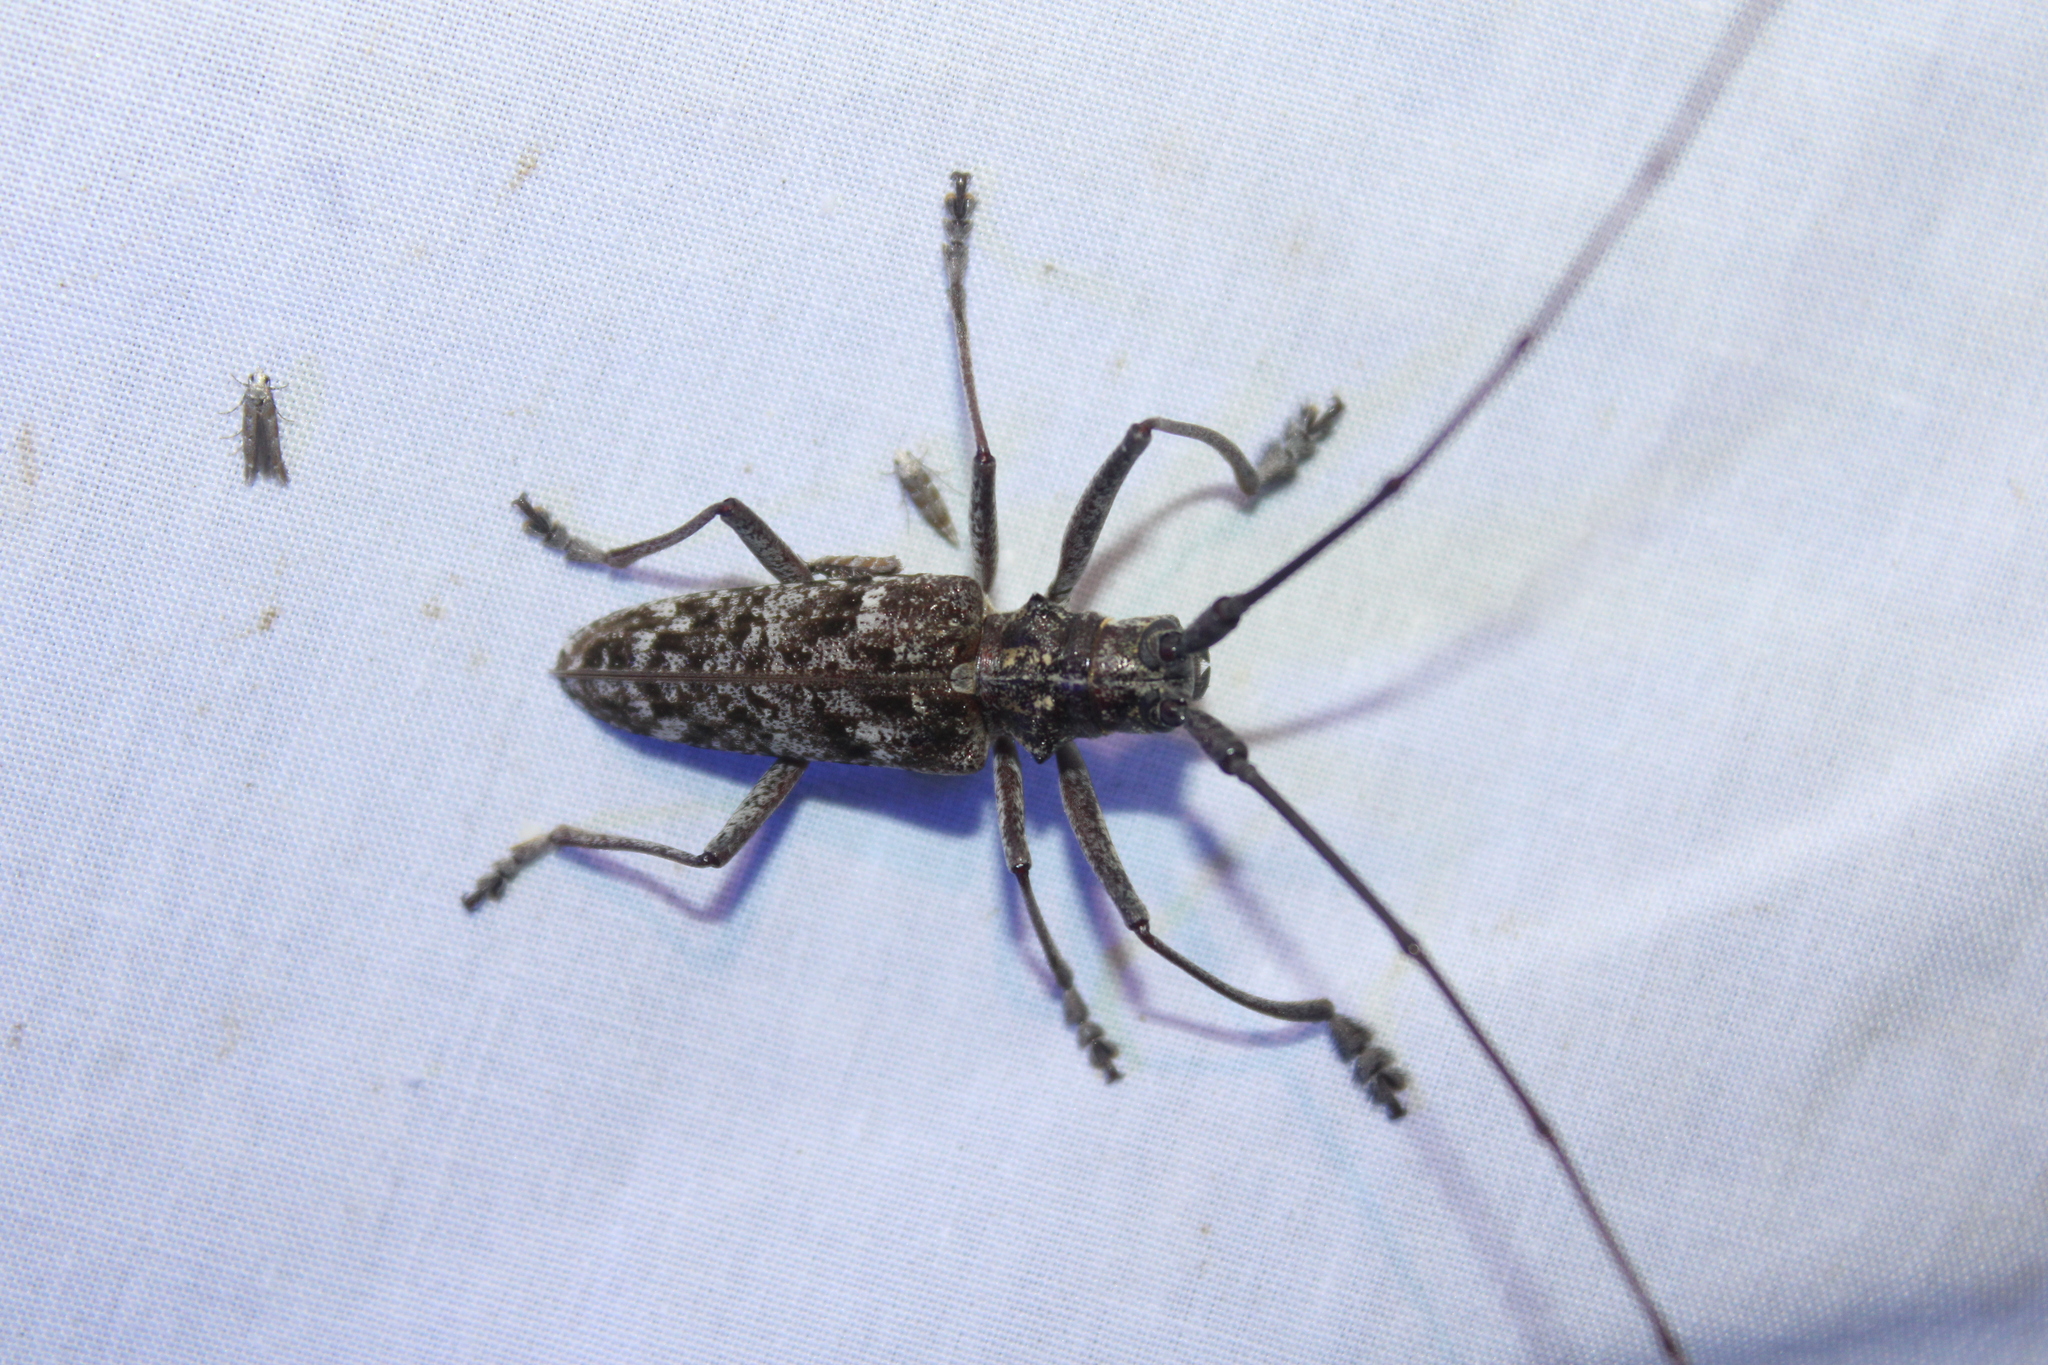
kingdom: Animalia
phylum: Arthropoda
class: Insecta
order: Coleoptera
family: Cerambycidae
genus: Monochamus
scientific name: Monochamus carolinensis
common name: Carolina pine sawyer
